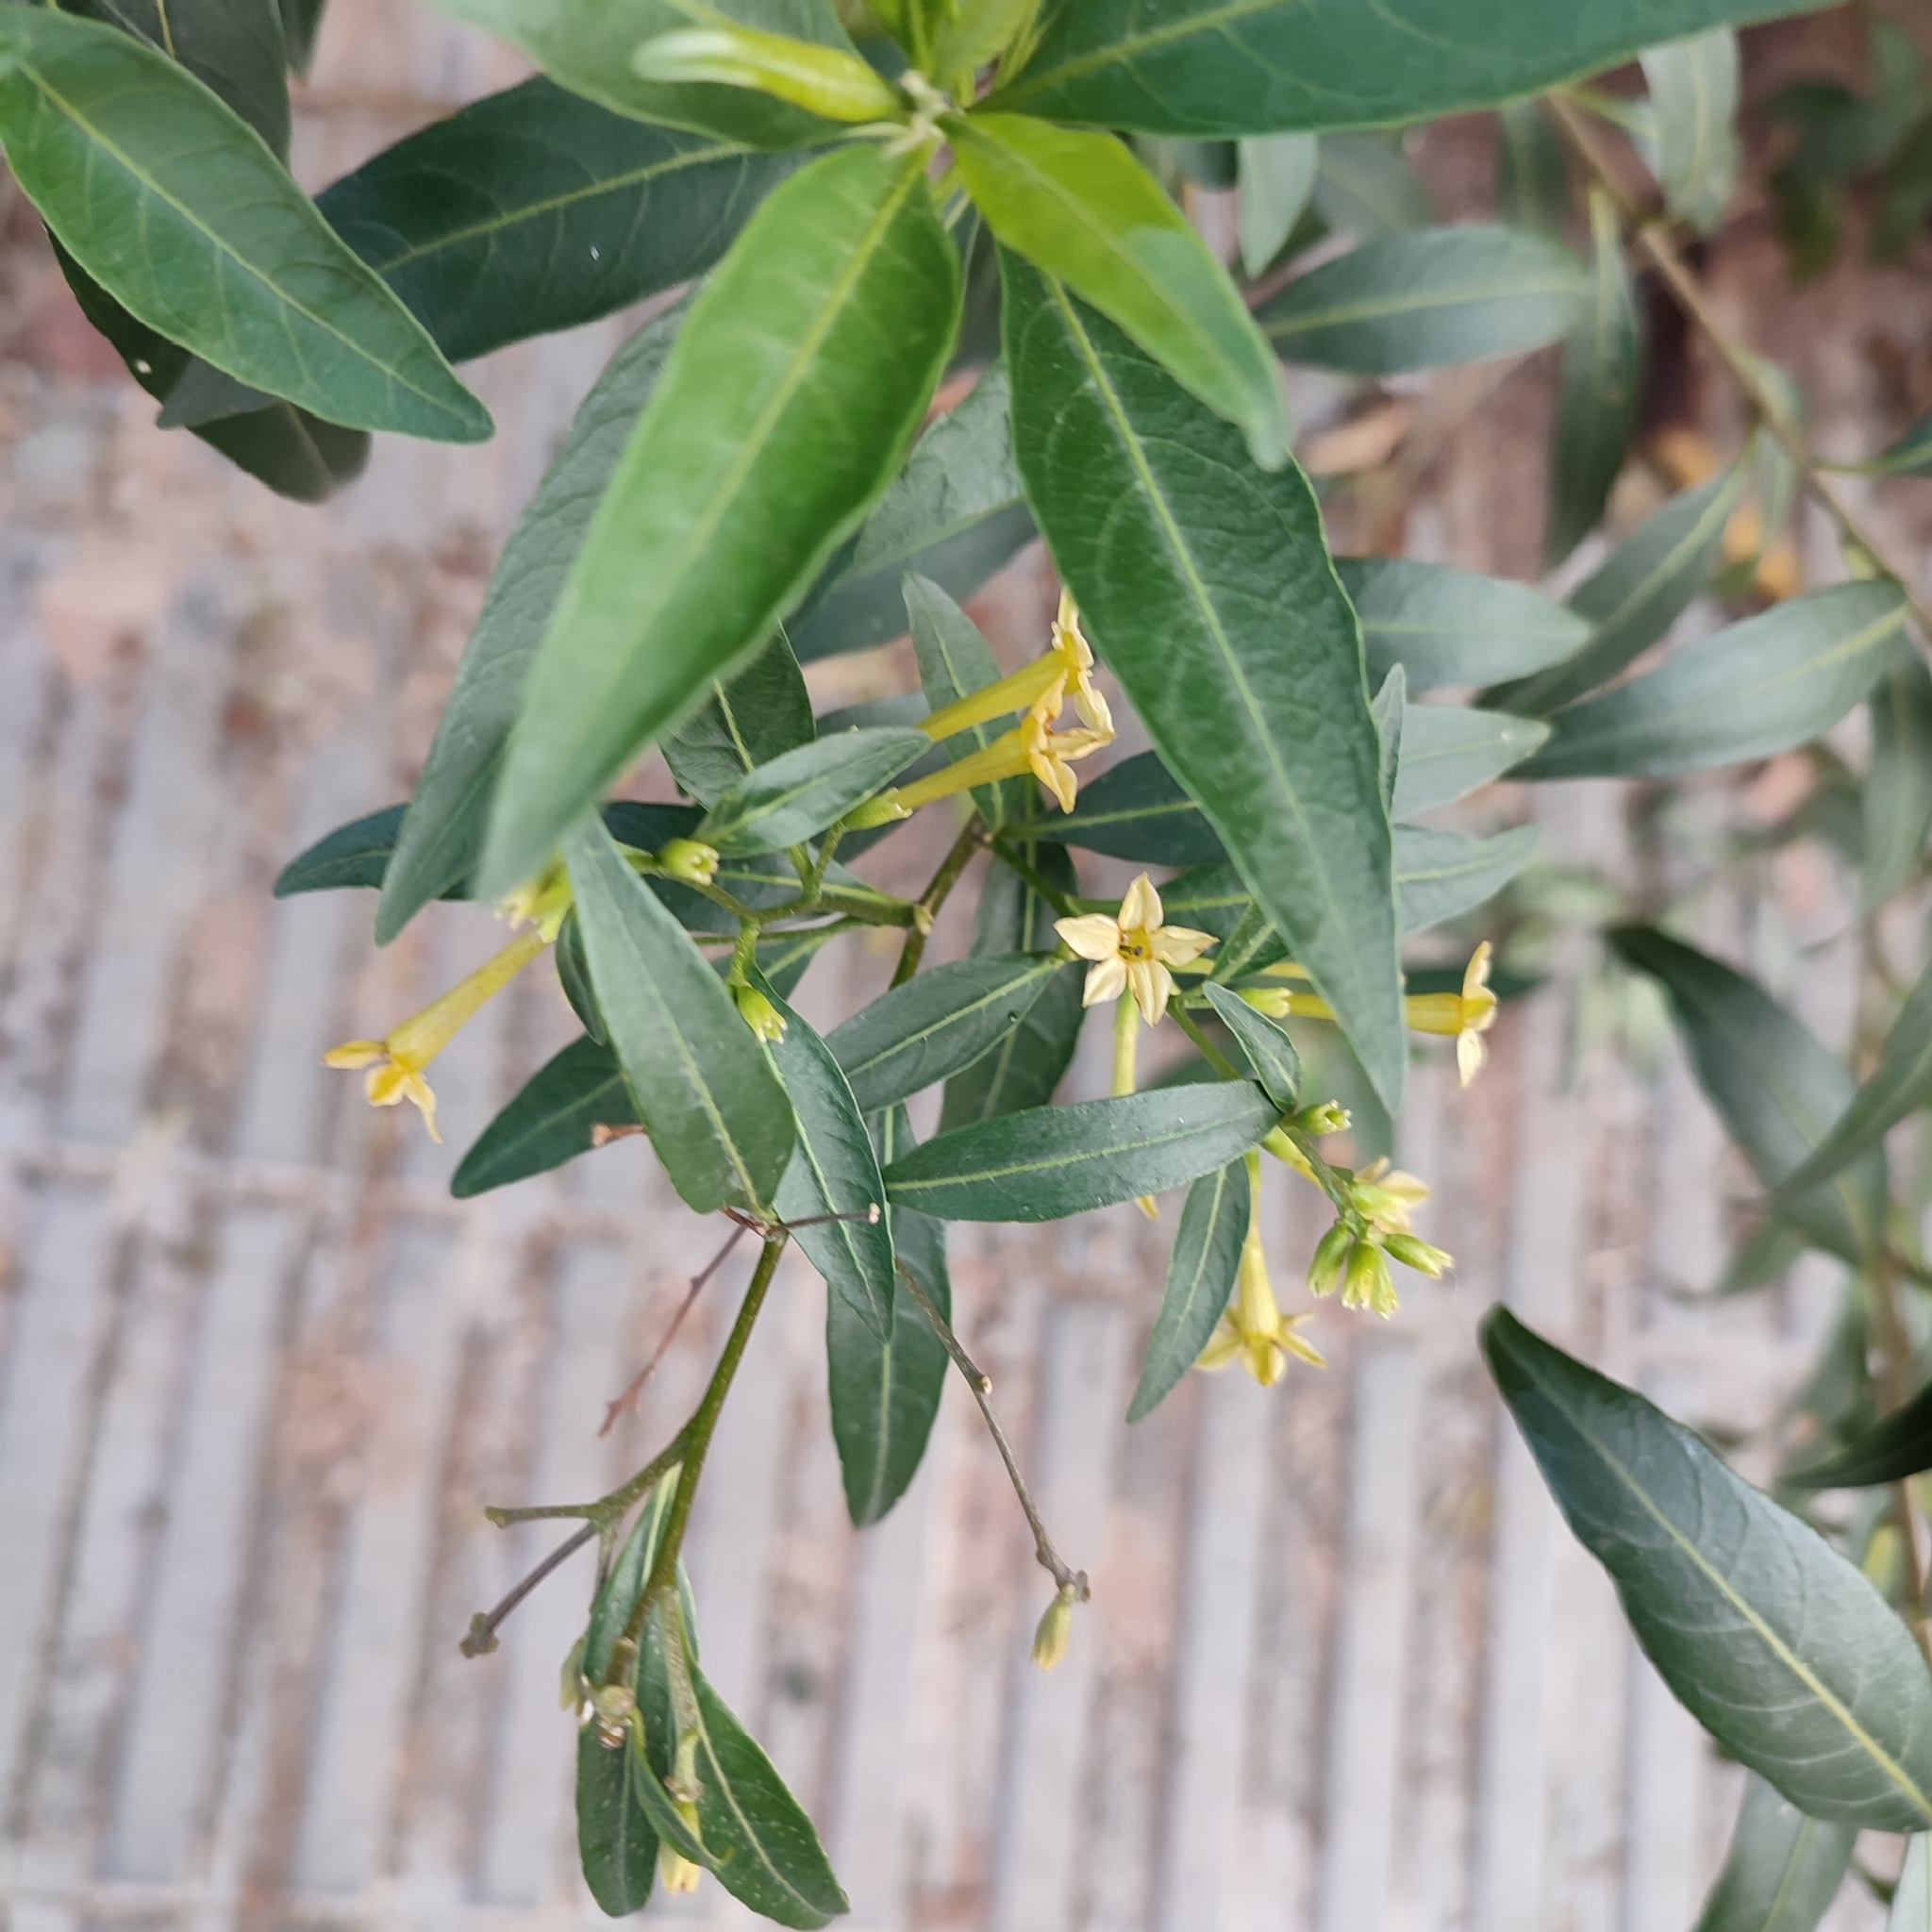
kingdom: Plantae
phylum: Tracheophyta
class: Magnoliopsida
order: Solanales
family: Solanaceae
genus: Cestrum
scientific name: Cestrum parqui
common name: Chilean cestrum
